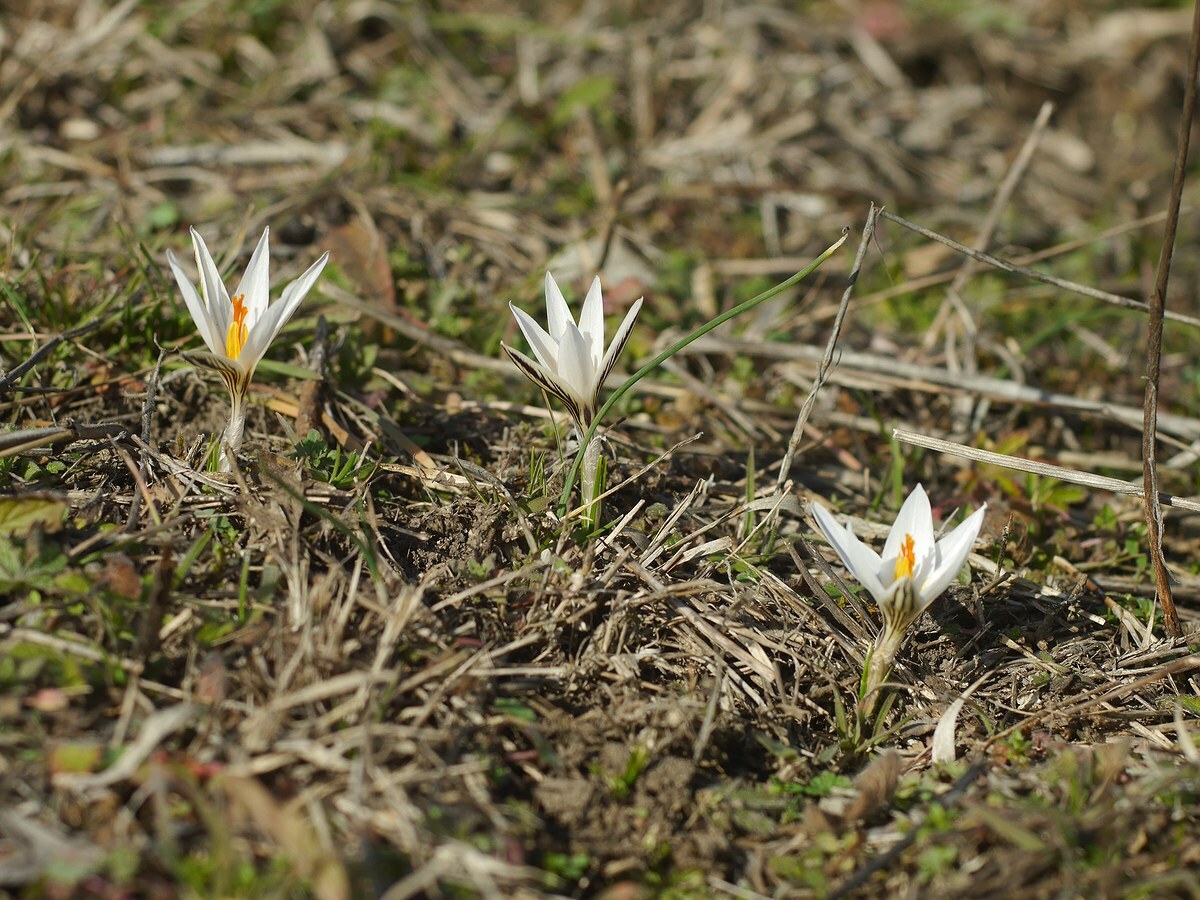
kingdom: Plantae
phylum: Tracheophyta
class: Liliopsida
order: Asparagales
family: Iridaceae
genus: Crocus
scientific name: Crocus reticulatus
